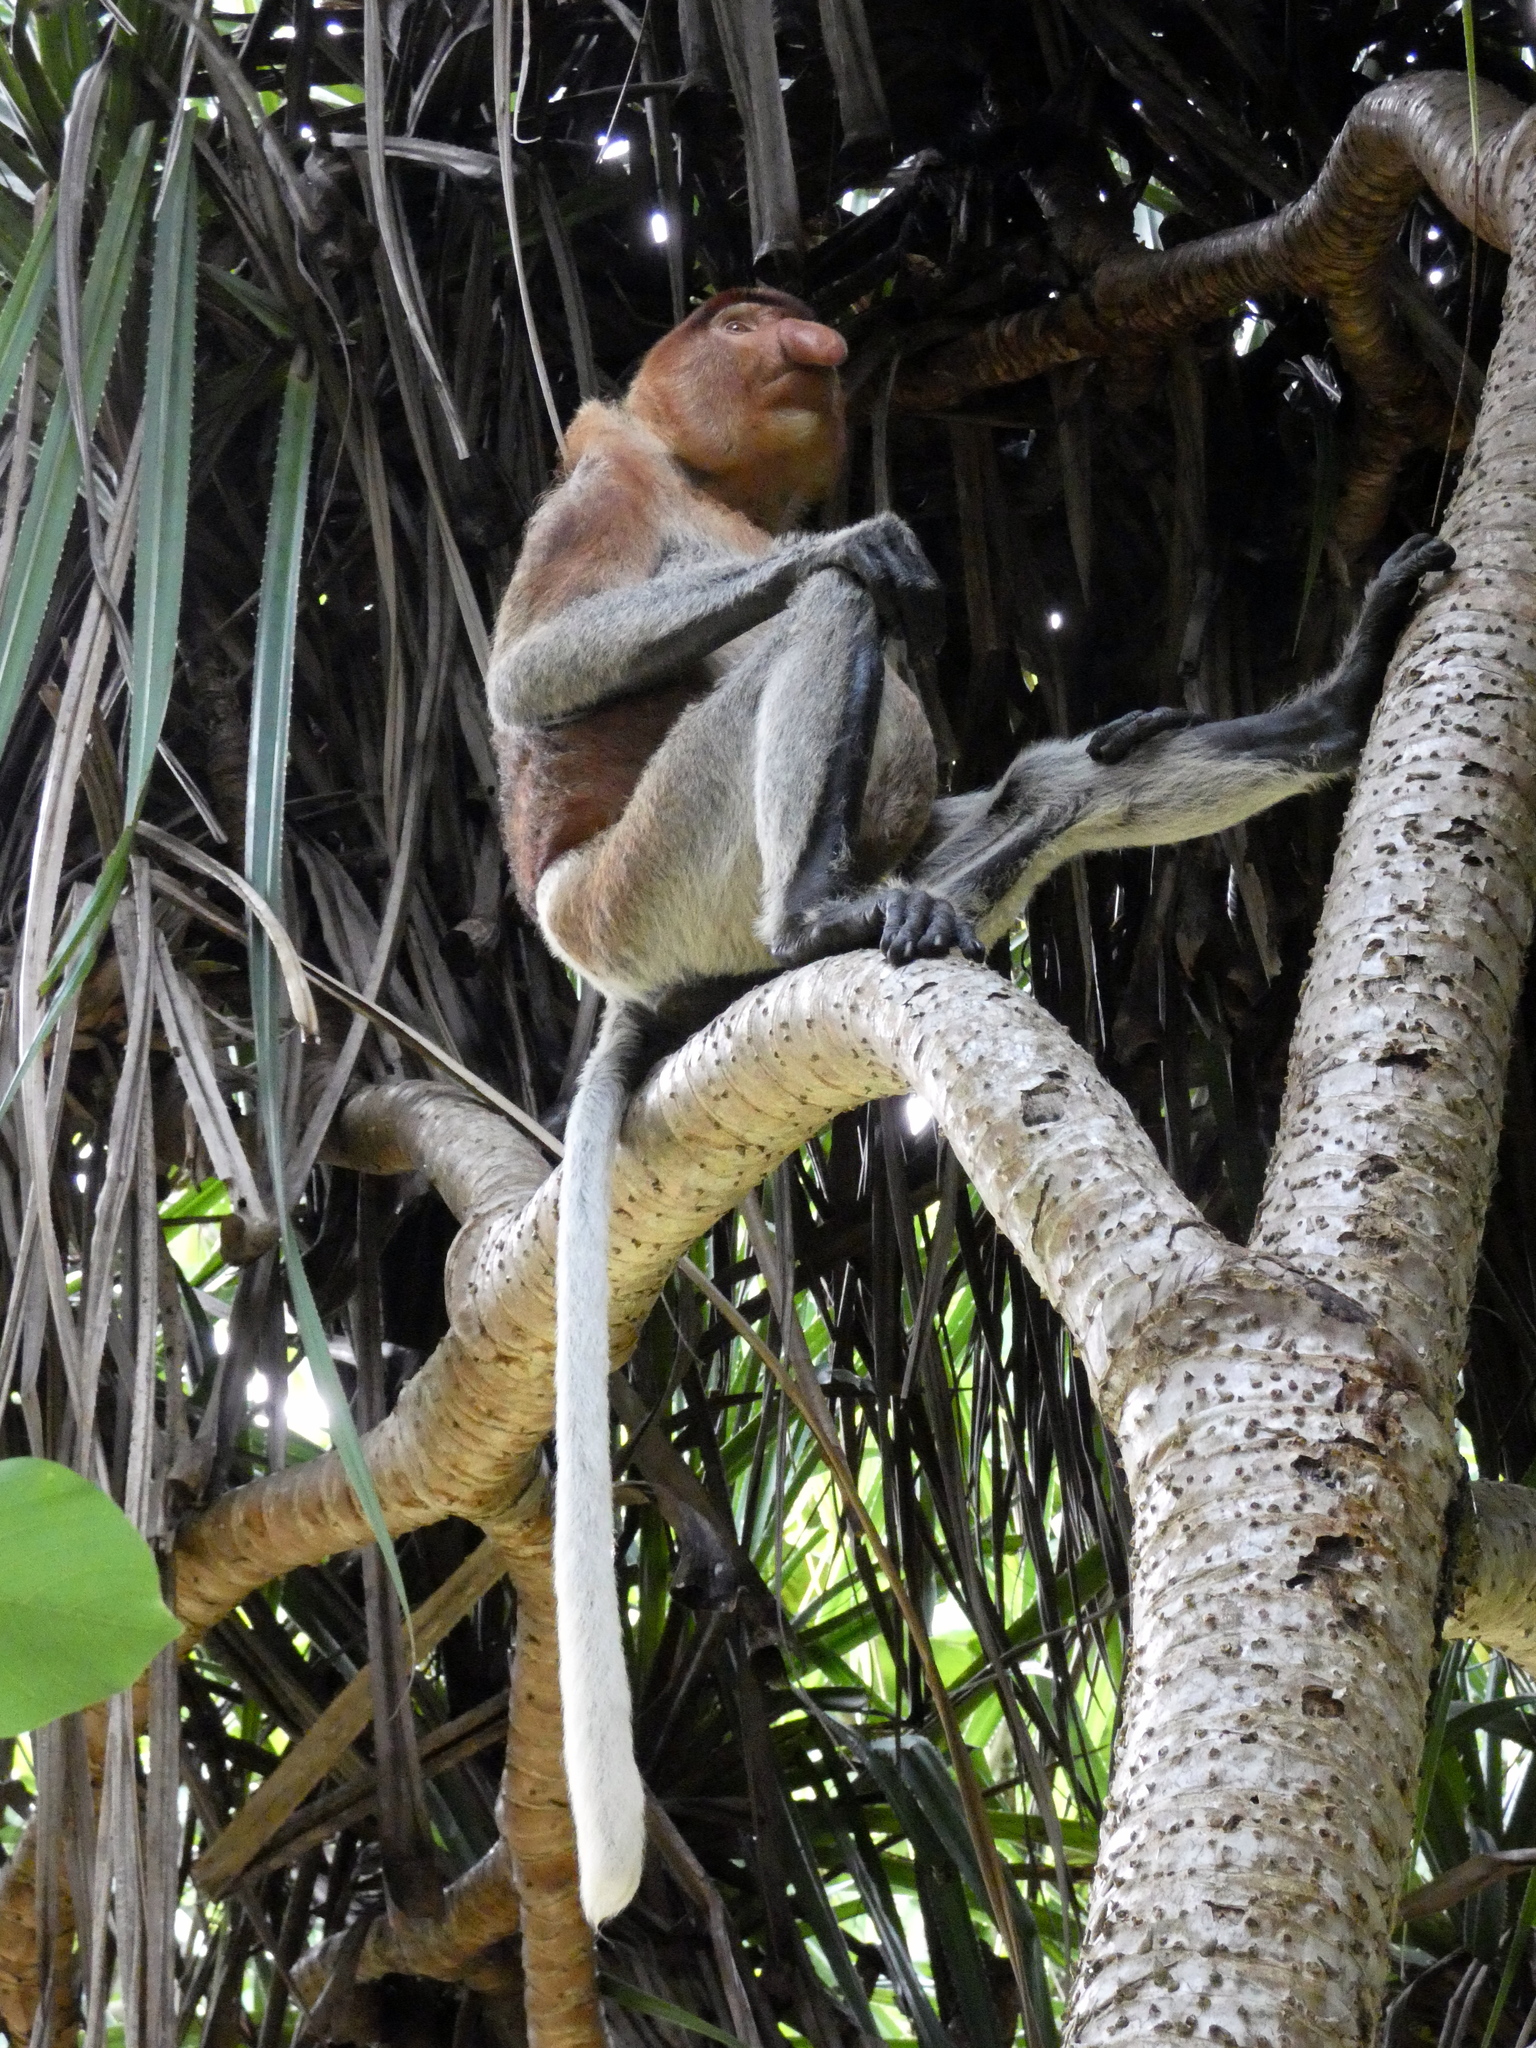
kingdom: Animalia
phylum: Chordata
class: Mammalia
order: Primates
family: Cercopithecidae
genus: Nasalis
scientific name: Nasalis larvatus
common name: Proboscis monkey
